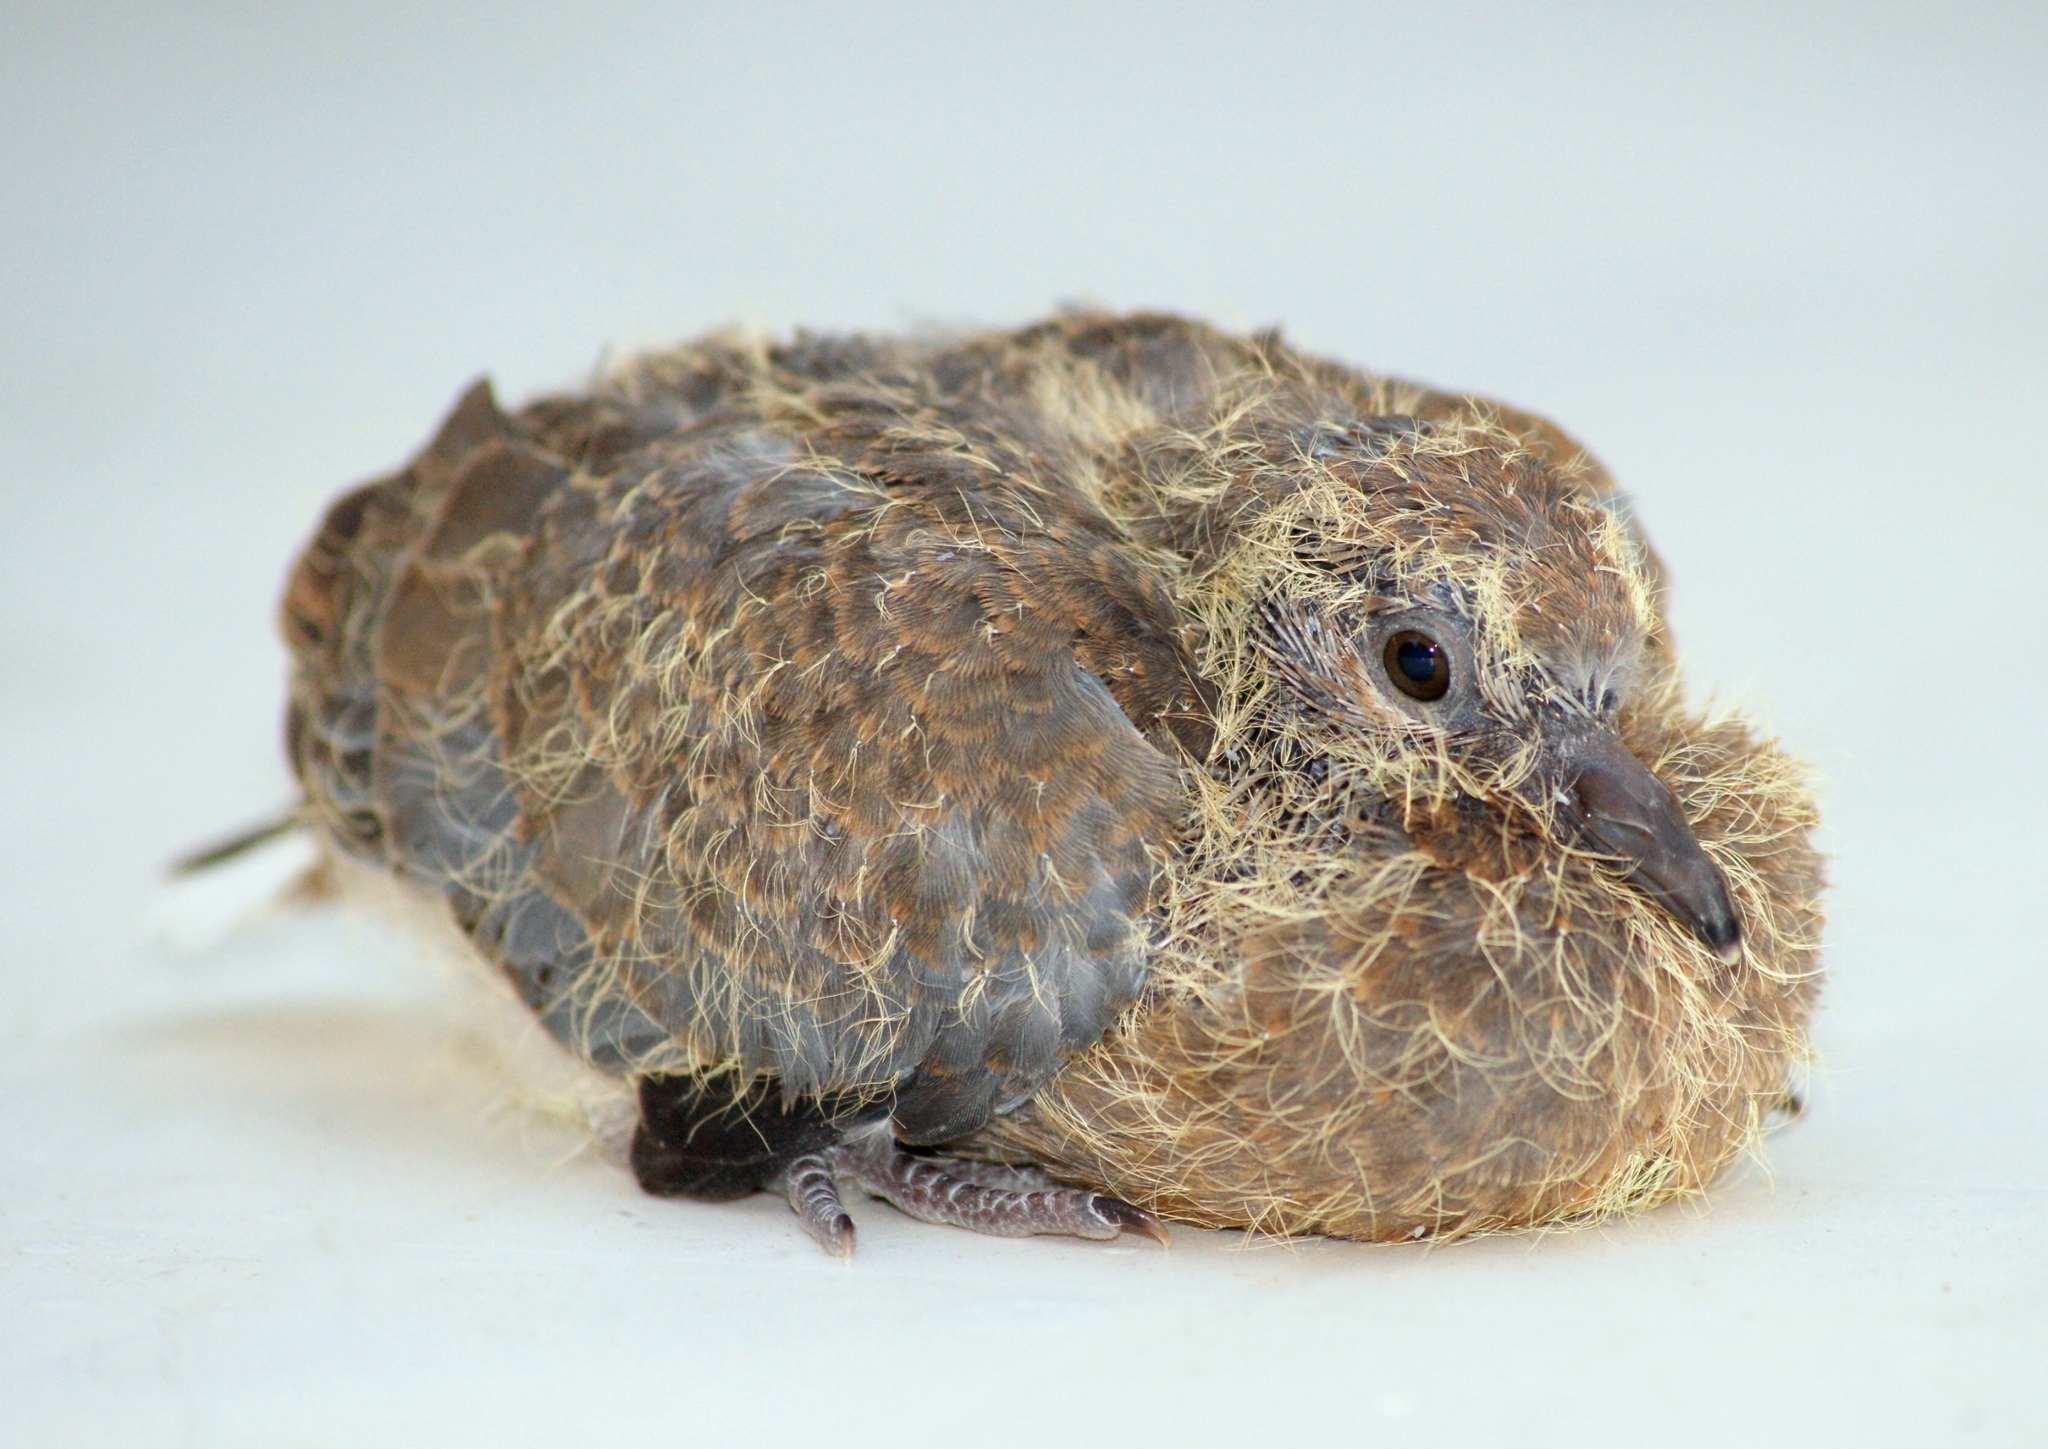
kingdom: Animalia
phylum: Chordata
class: Aves
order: Columbiformes
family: Columbidae
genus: Spilopelia
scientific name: Spilopelia senegalensis
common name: Laughing dove
